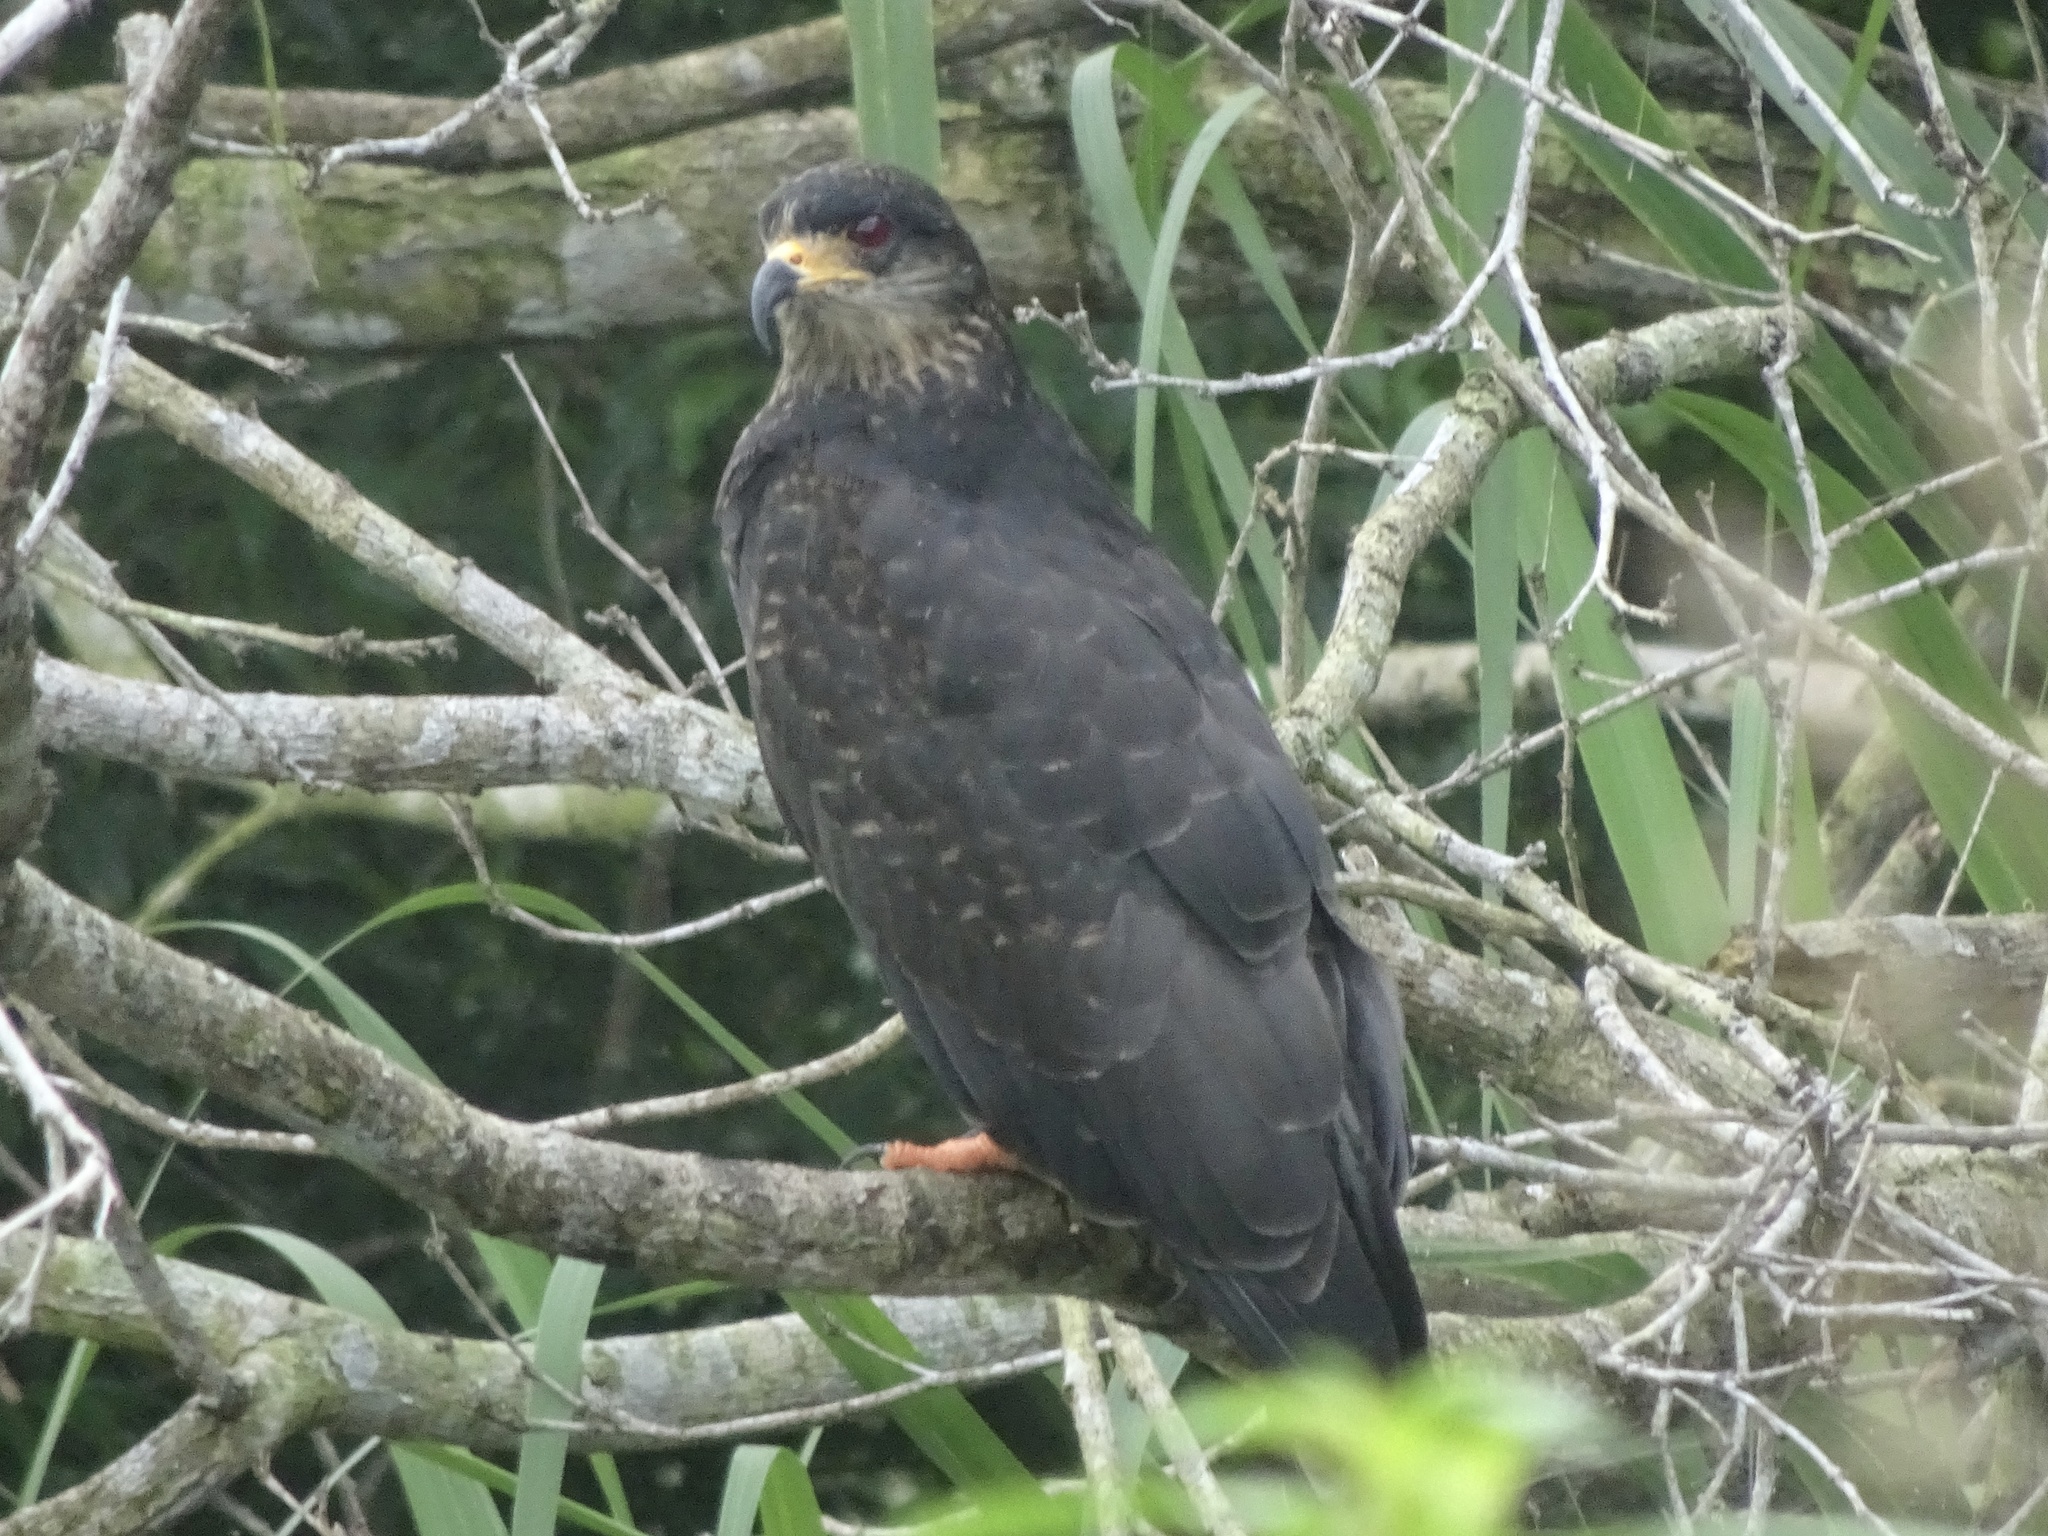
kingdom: Animalia
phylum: Chordata
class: Aves
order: Accipitriformes
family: Accipitridae
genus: Rostrhamus
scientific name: Rostrhamus sociabilis
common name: Snail kite
